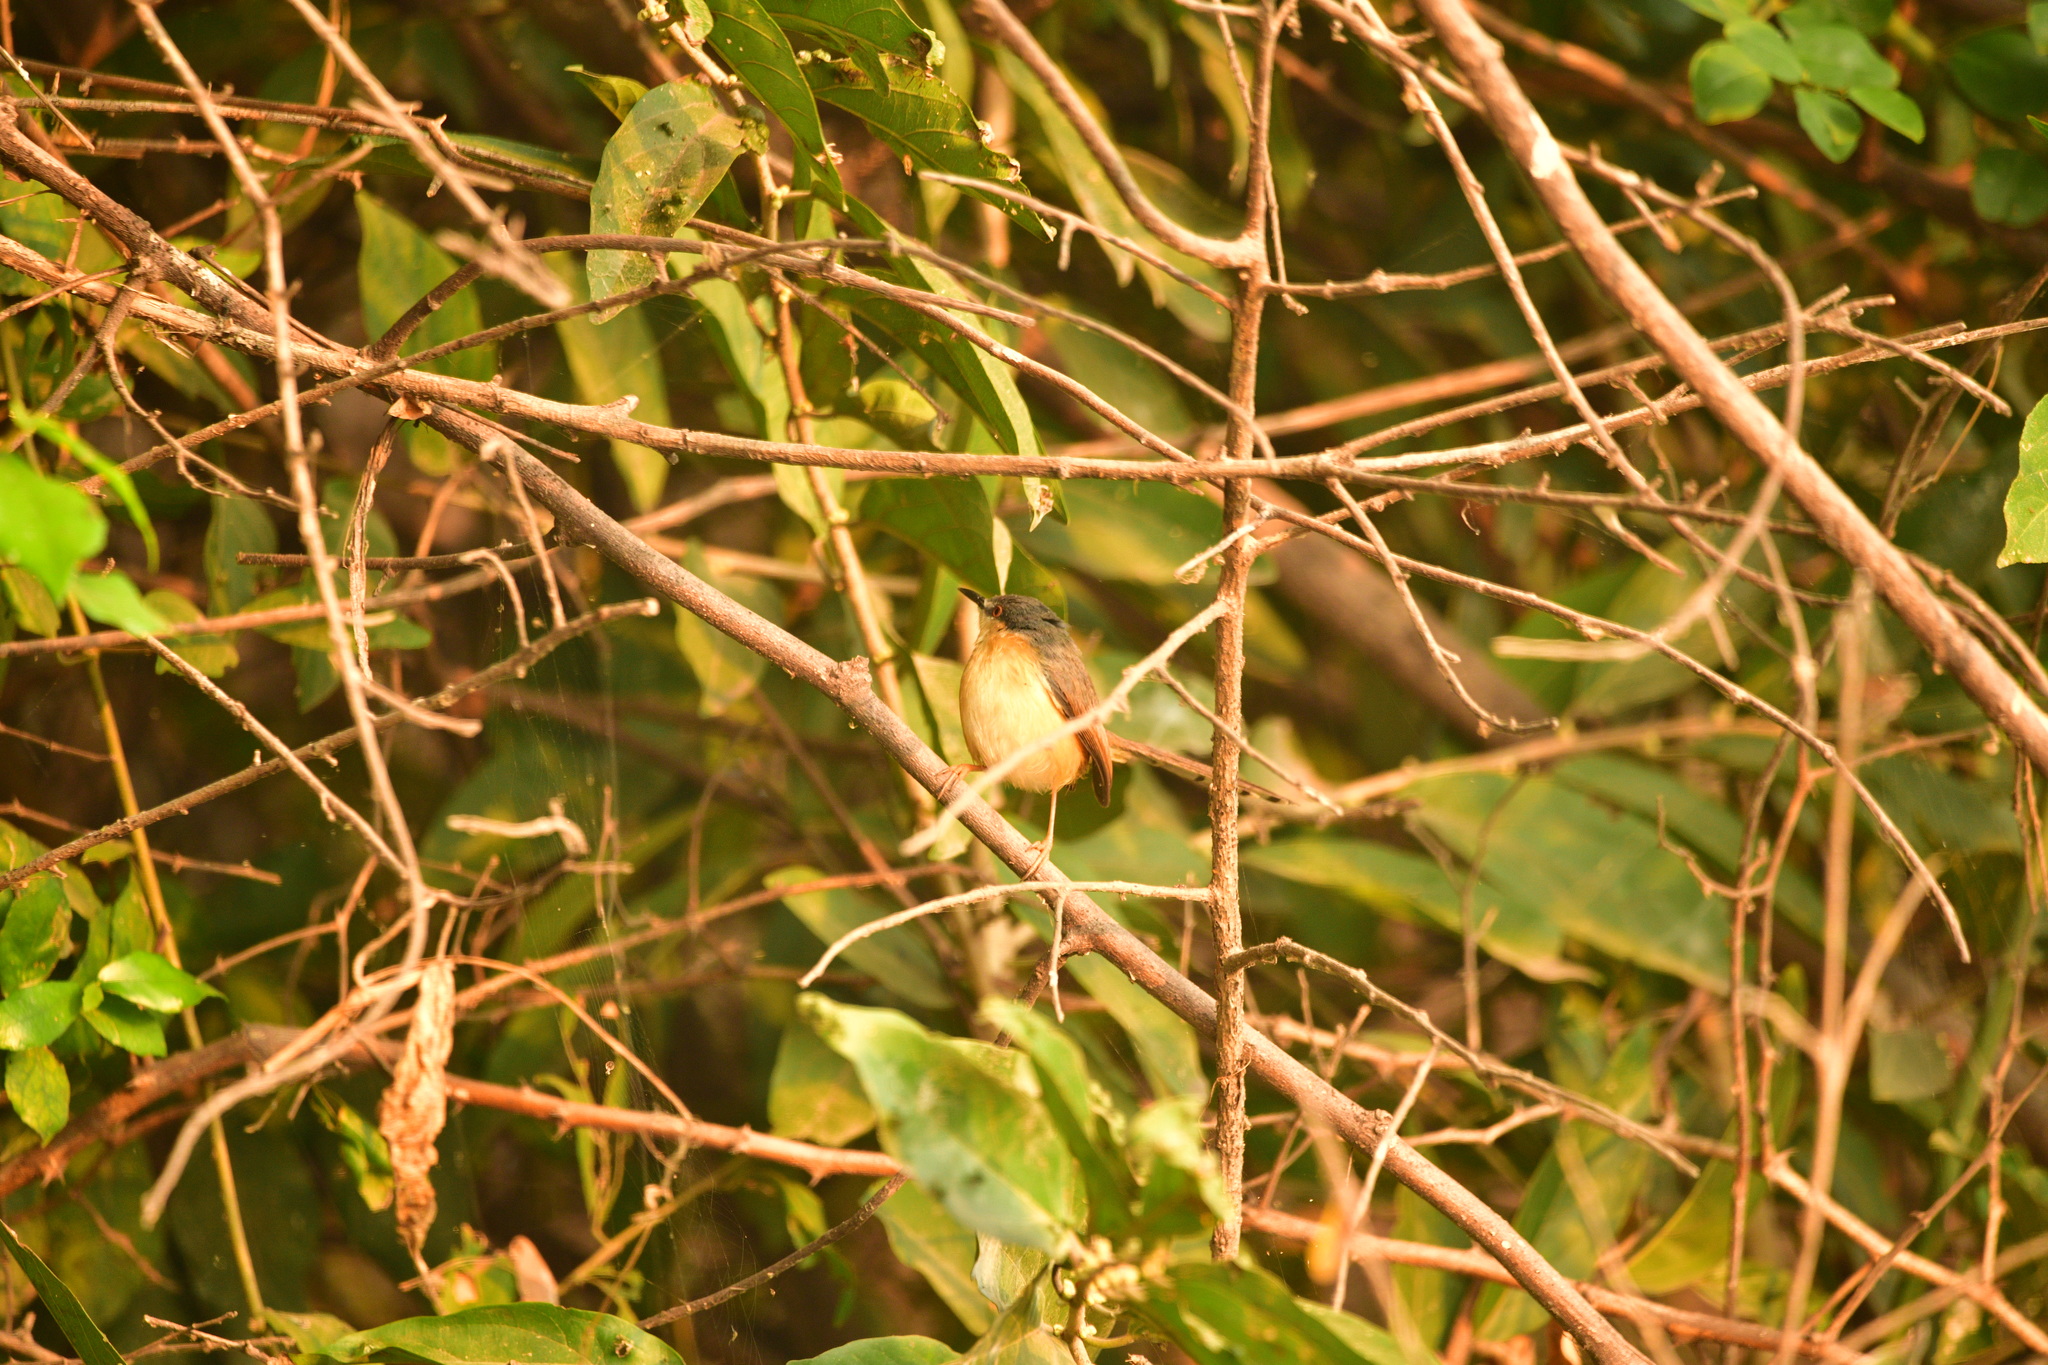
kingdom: Animalia
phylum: Chordata
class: Aves
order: Passeriformes
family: Cisticolidae
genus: Prinia
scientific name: Prinia socialis
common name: Ashy prinia
